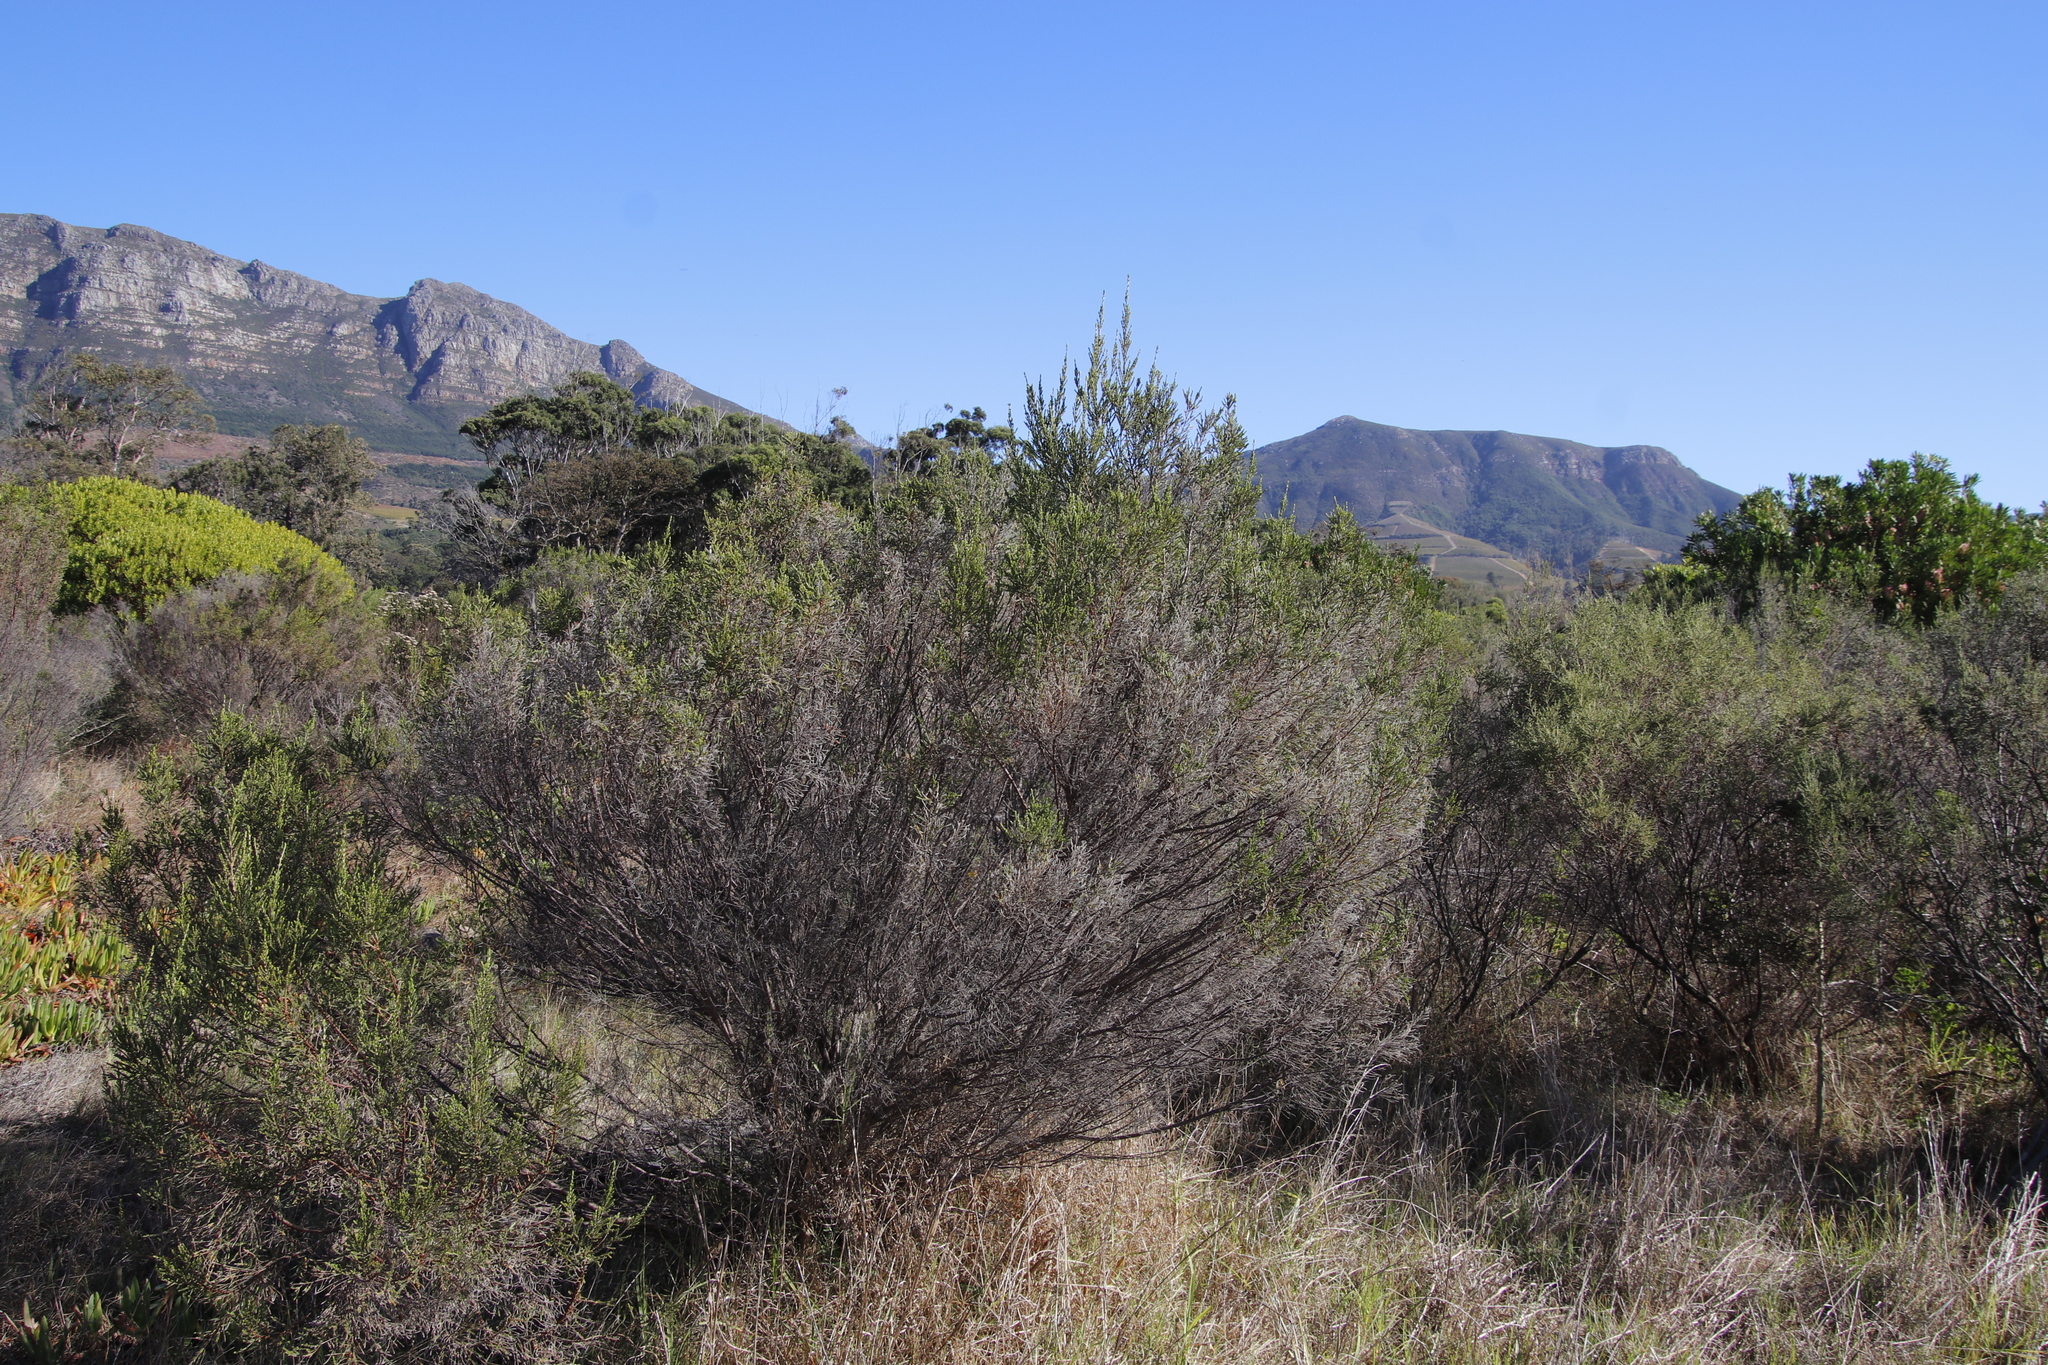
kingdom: Plantae
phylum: Tracheophyta
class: Magnoliopsida
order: Malvales
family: Thymelaeaceae
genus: Passerina
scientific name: Passerina corymbosa
